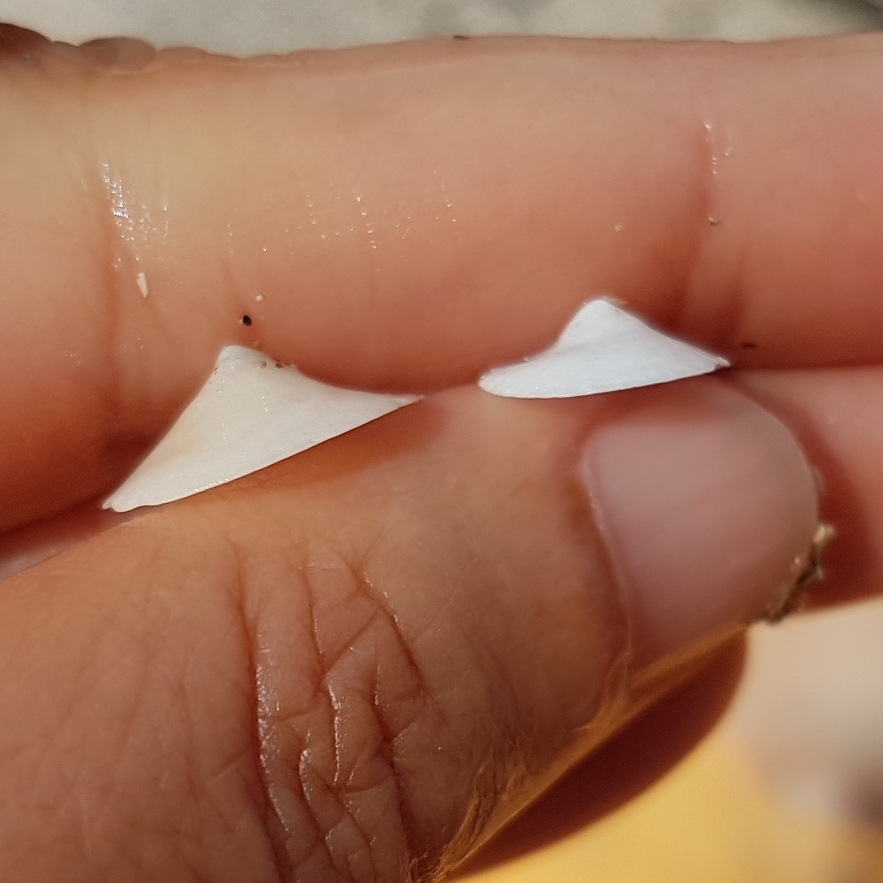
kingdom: Animalia
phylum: Mollusca
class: Gastropoda
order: Littorinimorpha
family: Calyptraeidae
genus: Calyptraea
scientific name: Calyptraea chinensis
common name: Chinaman's hat
